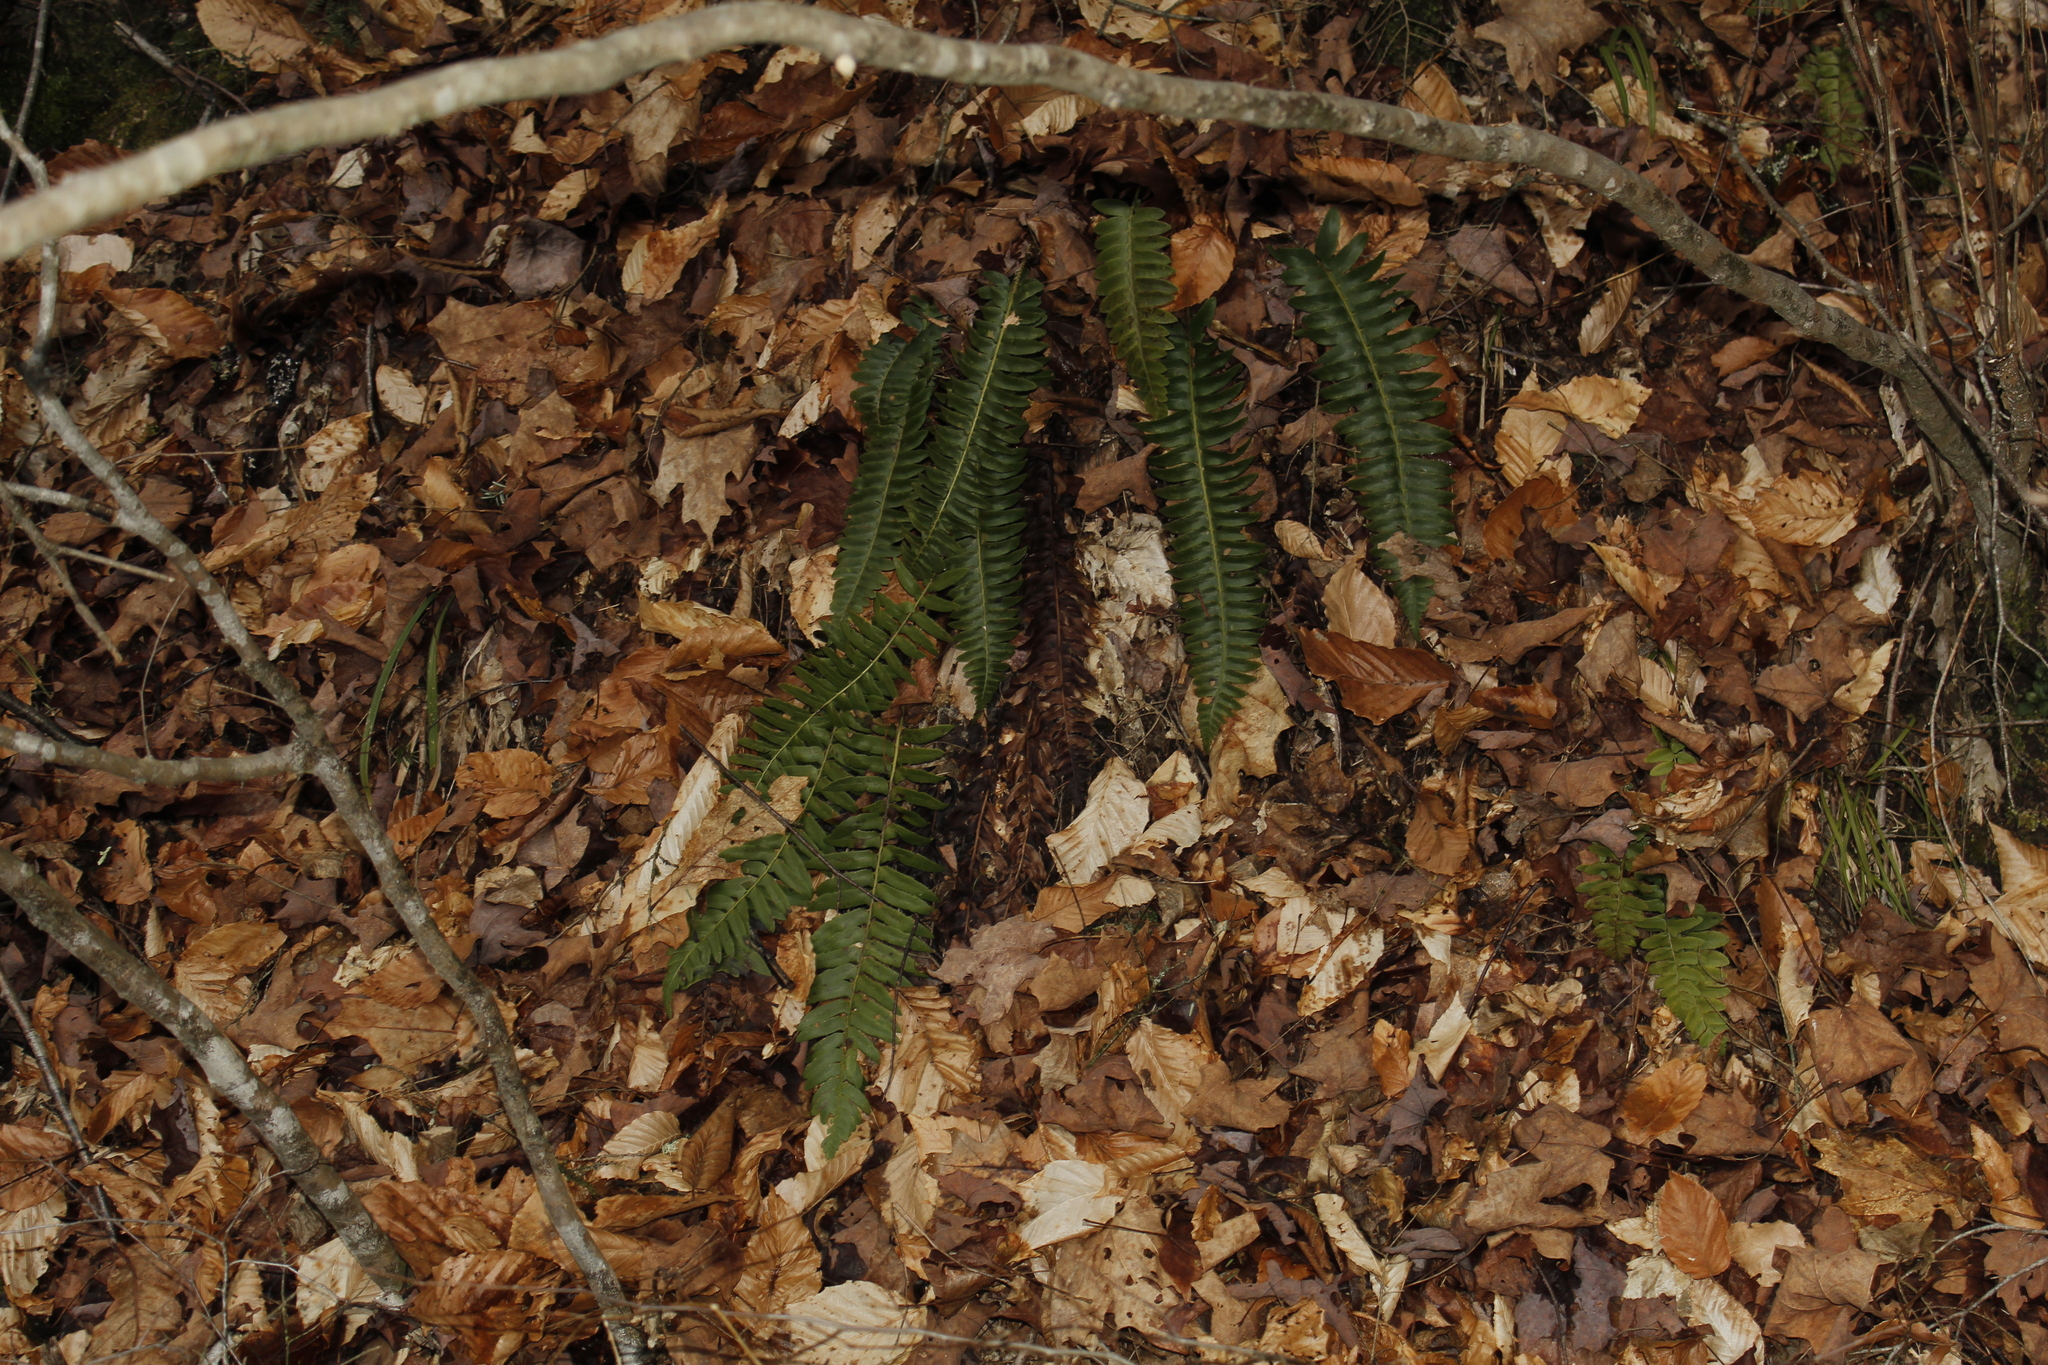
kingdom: Plantae
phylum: Tracheophyta
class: Polypodiopsida
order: Polypodiales
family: Dryopteridaceae
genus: Polystichum
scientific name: Polystichum acrostichoides
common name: Christmas fern
